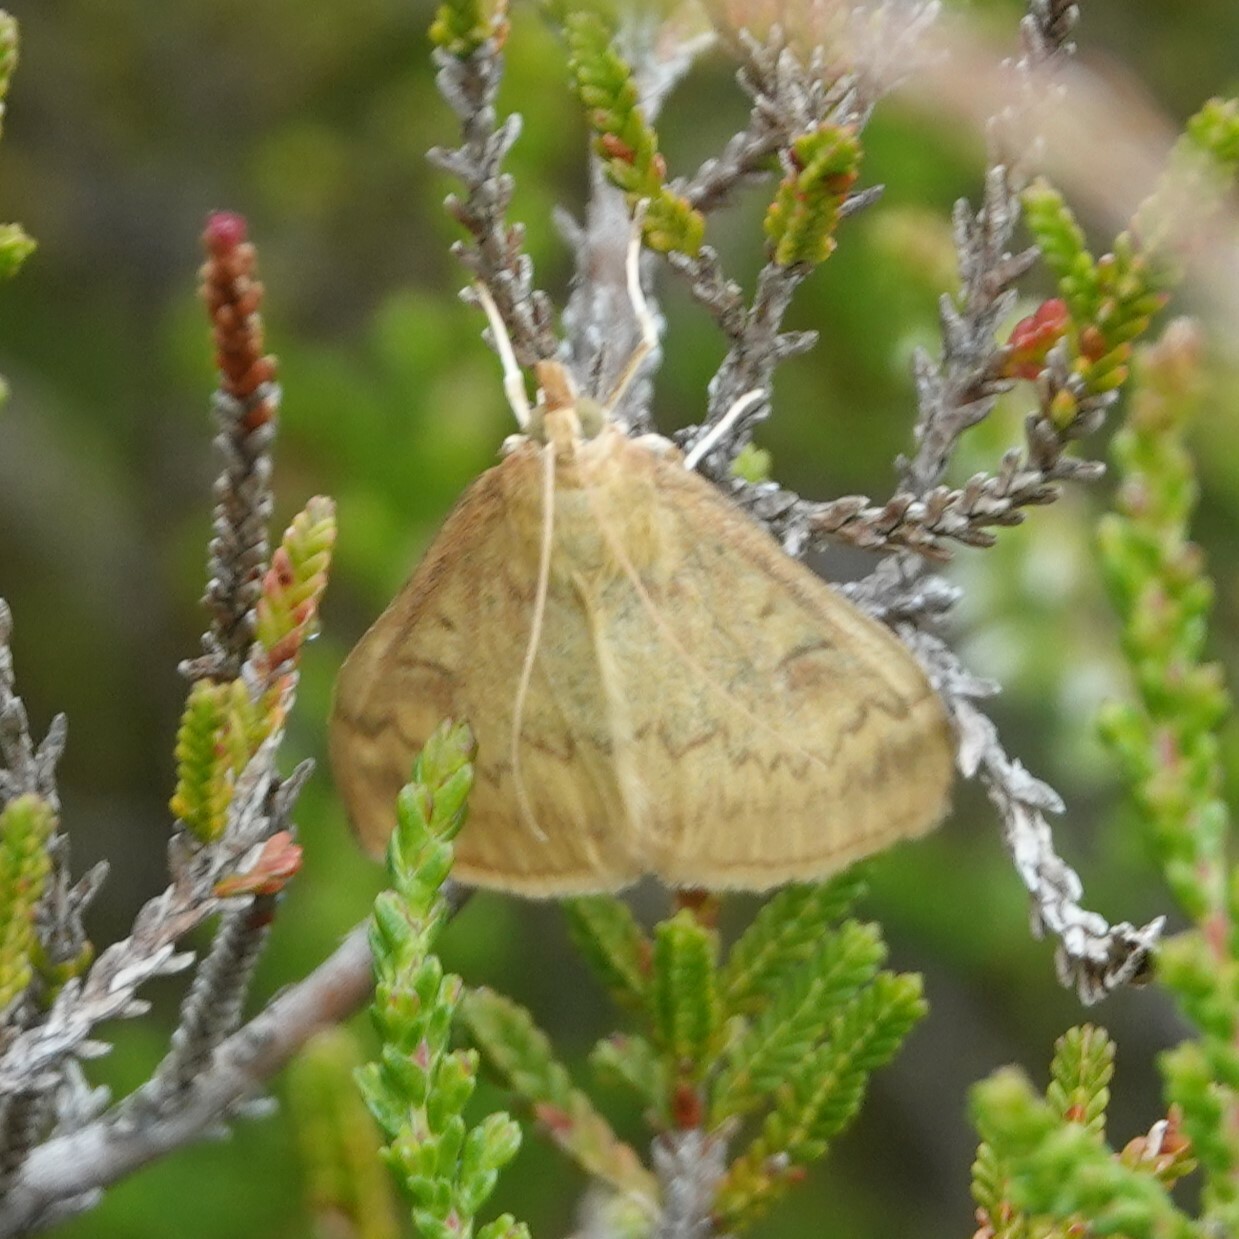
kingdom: Animalia
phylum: Arthropoda
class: Insecta
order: Lepidoptera
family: Crambidae
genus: Ostrinia
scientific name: Ostrinia nubilalis
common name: European corn borer
